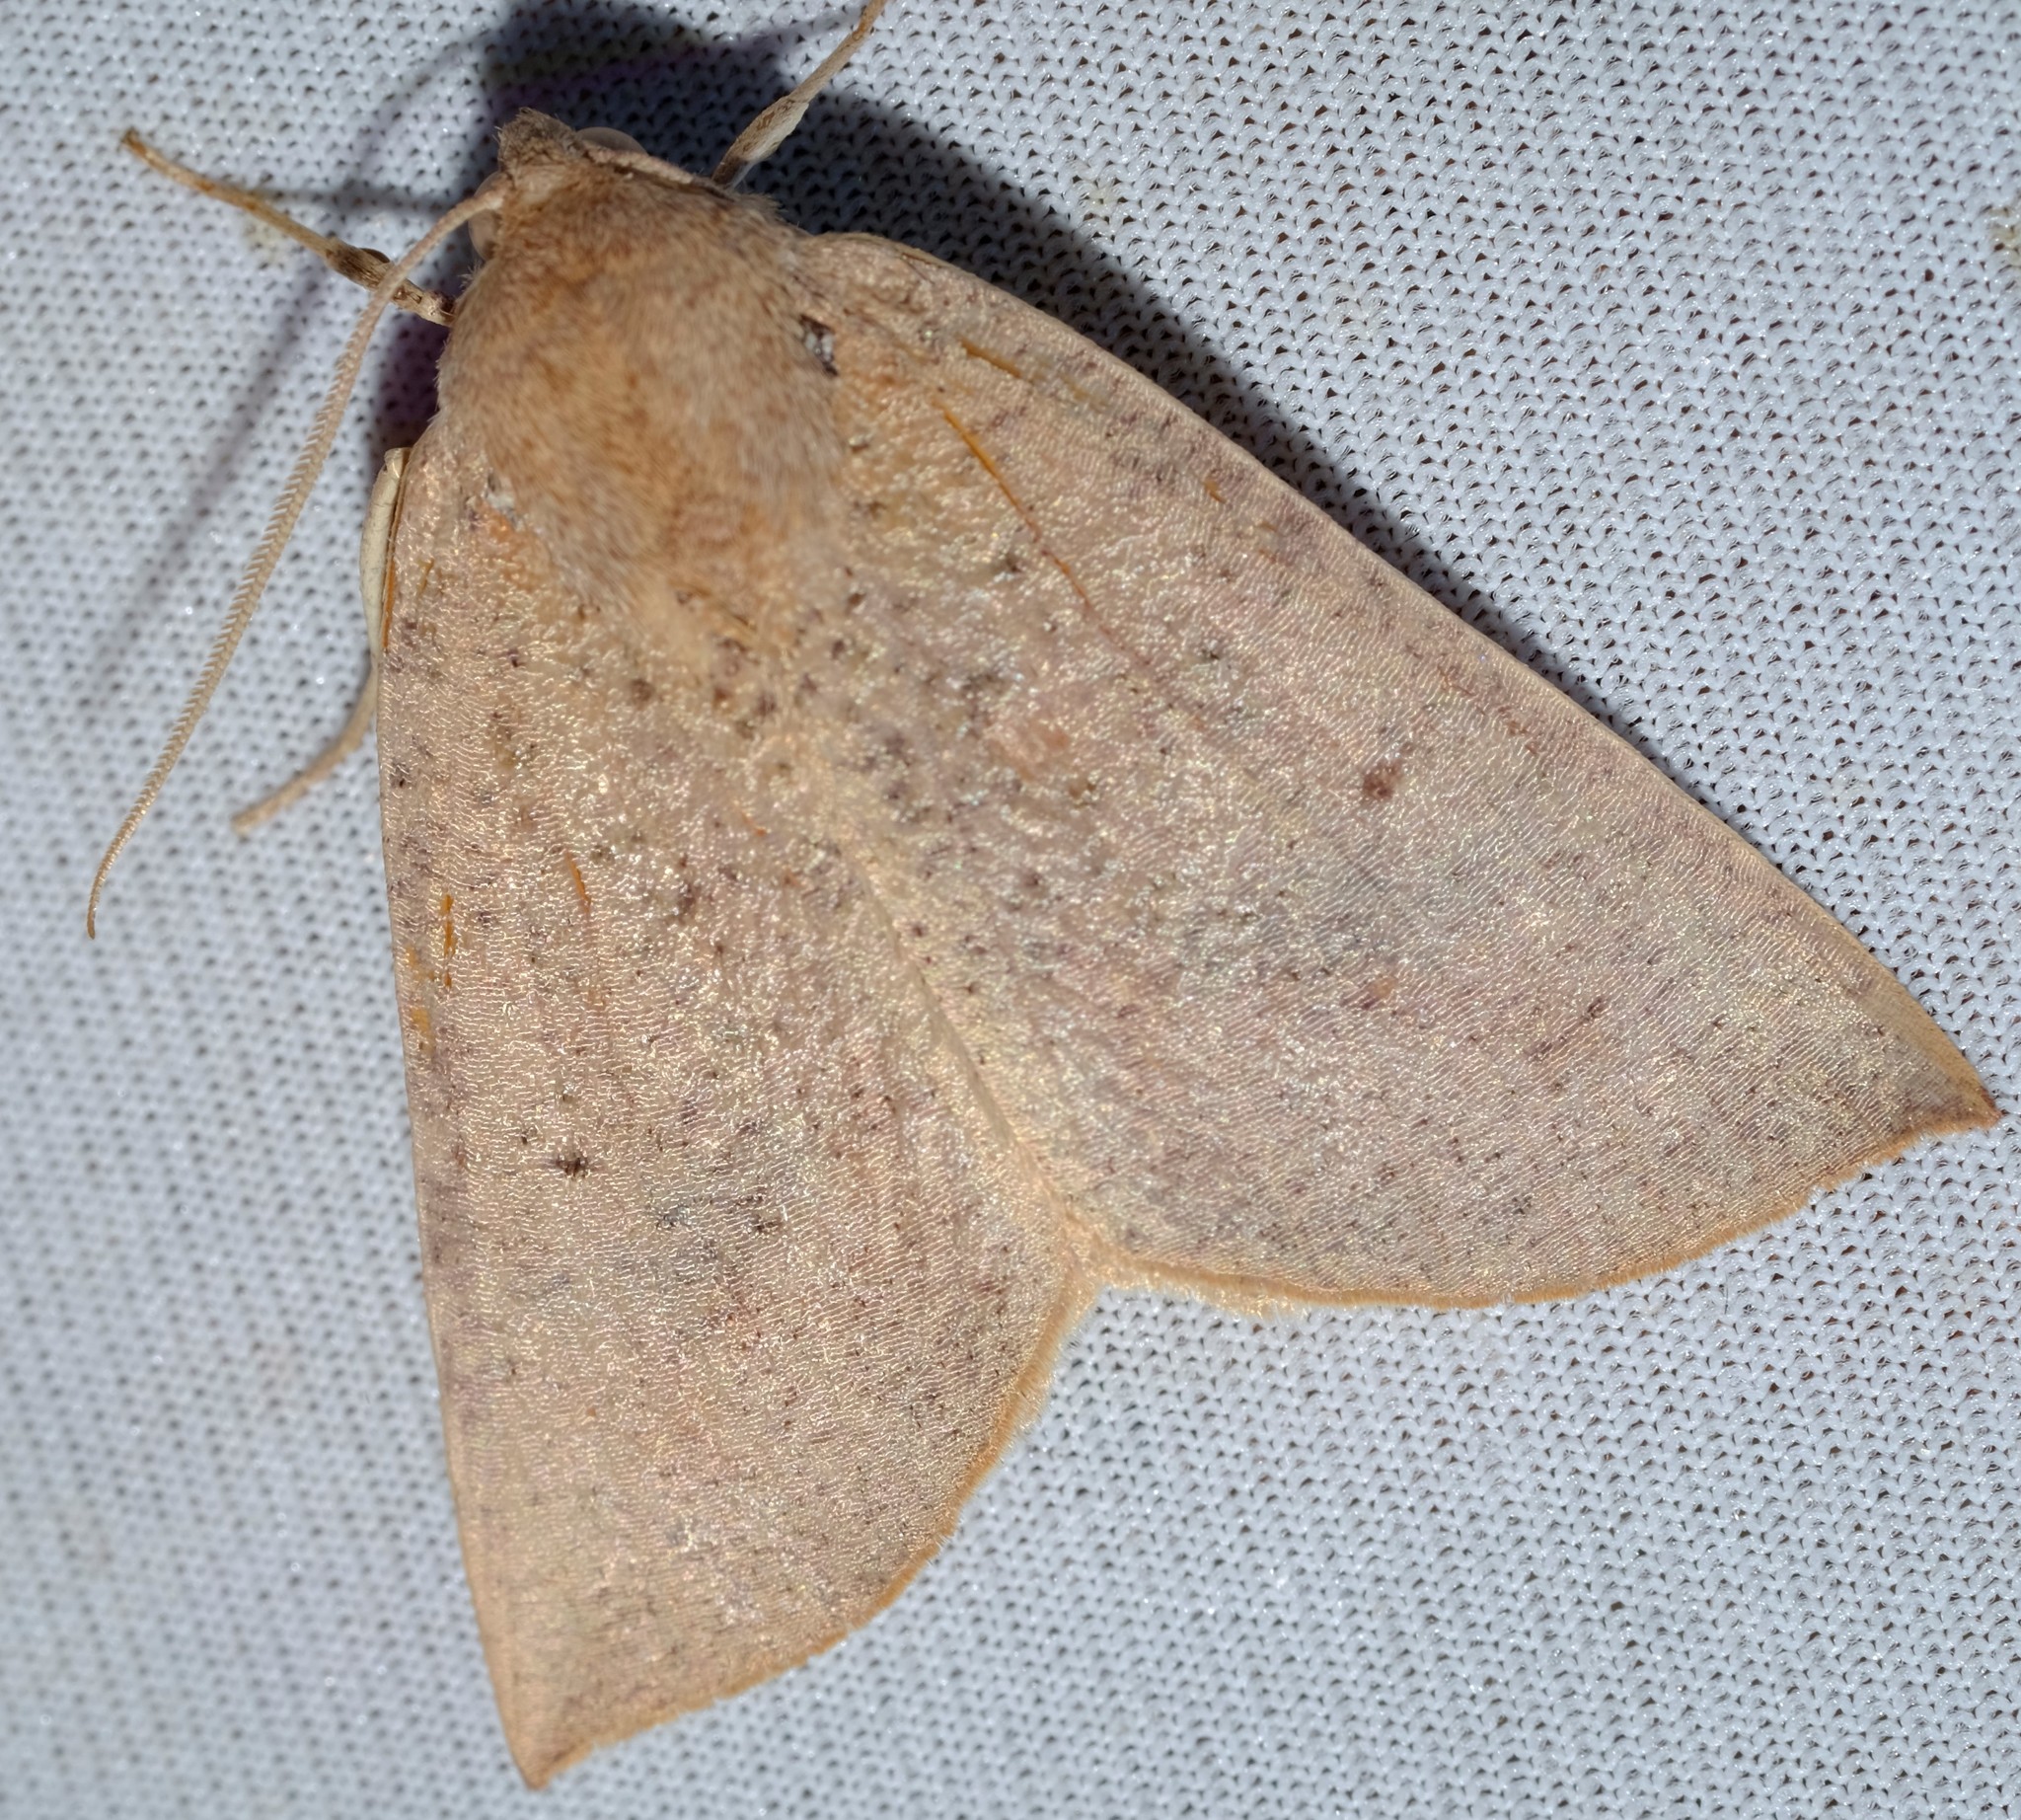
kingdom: Animalia
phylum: Arthropoda
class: Insecta
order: Lepidoptera
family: Geometridae
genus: Mnesampela
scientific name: Mnesampela heliochrysa
